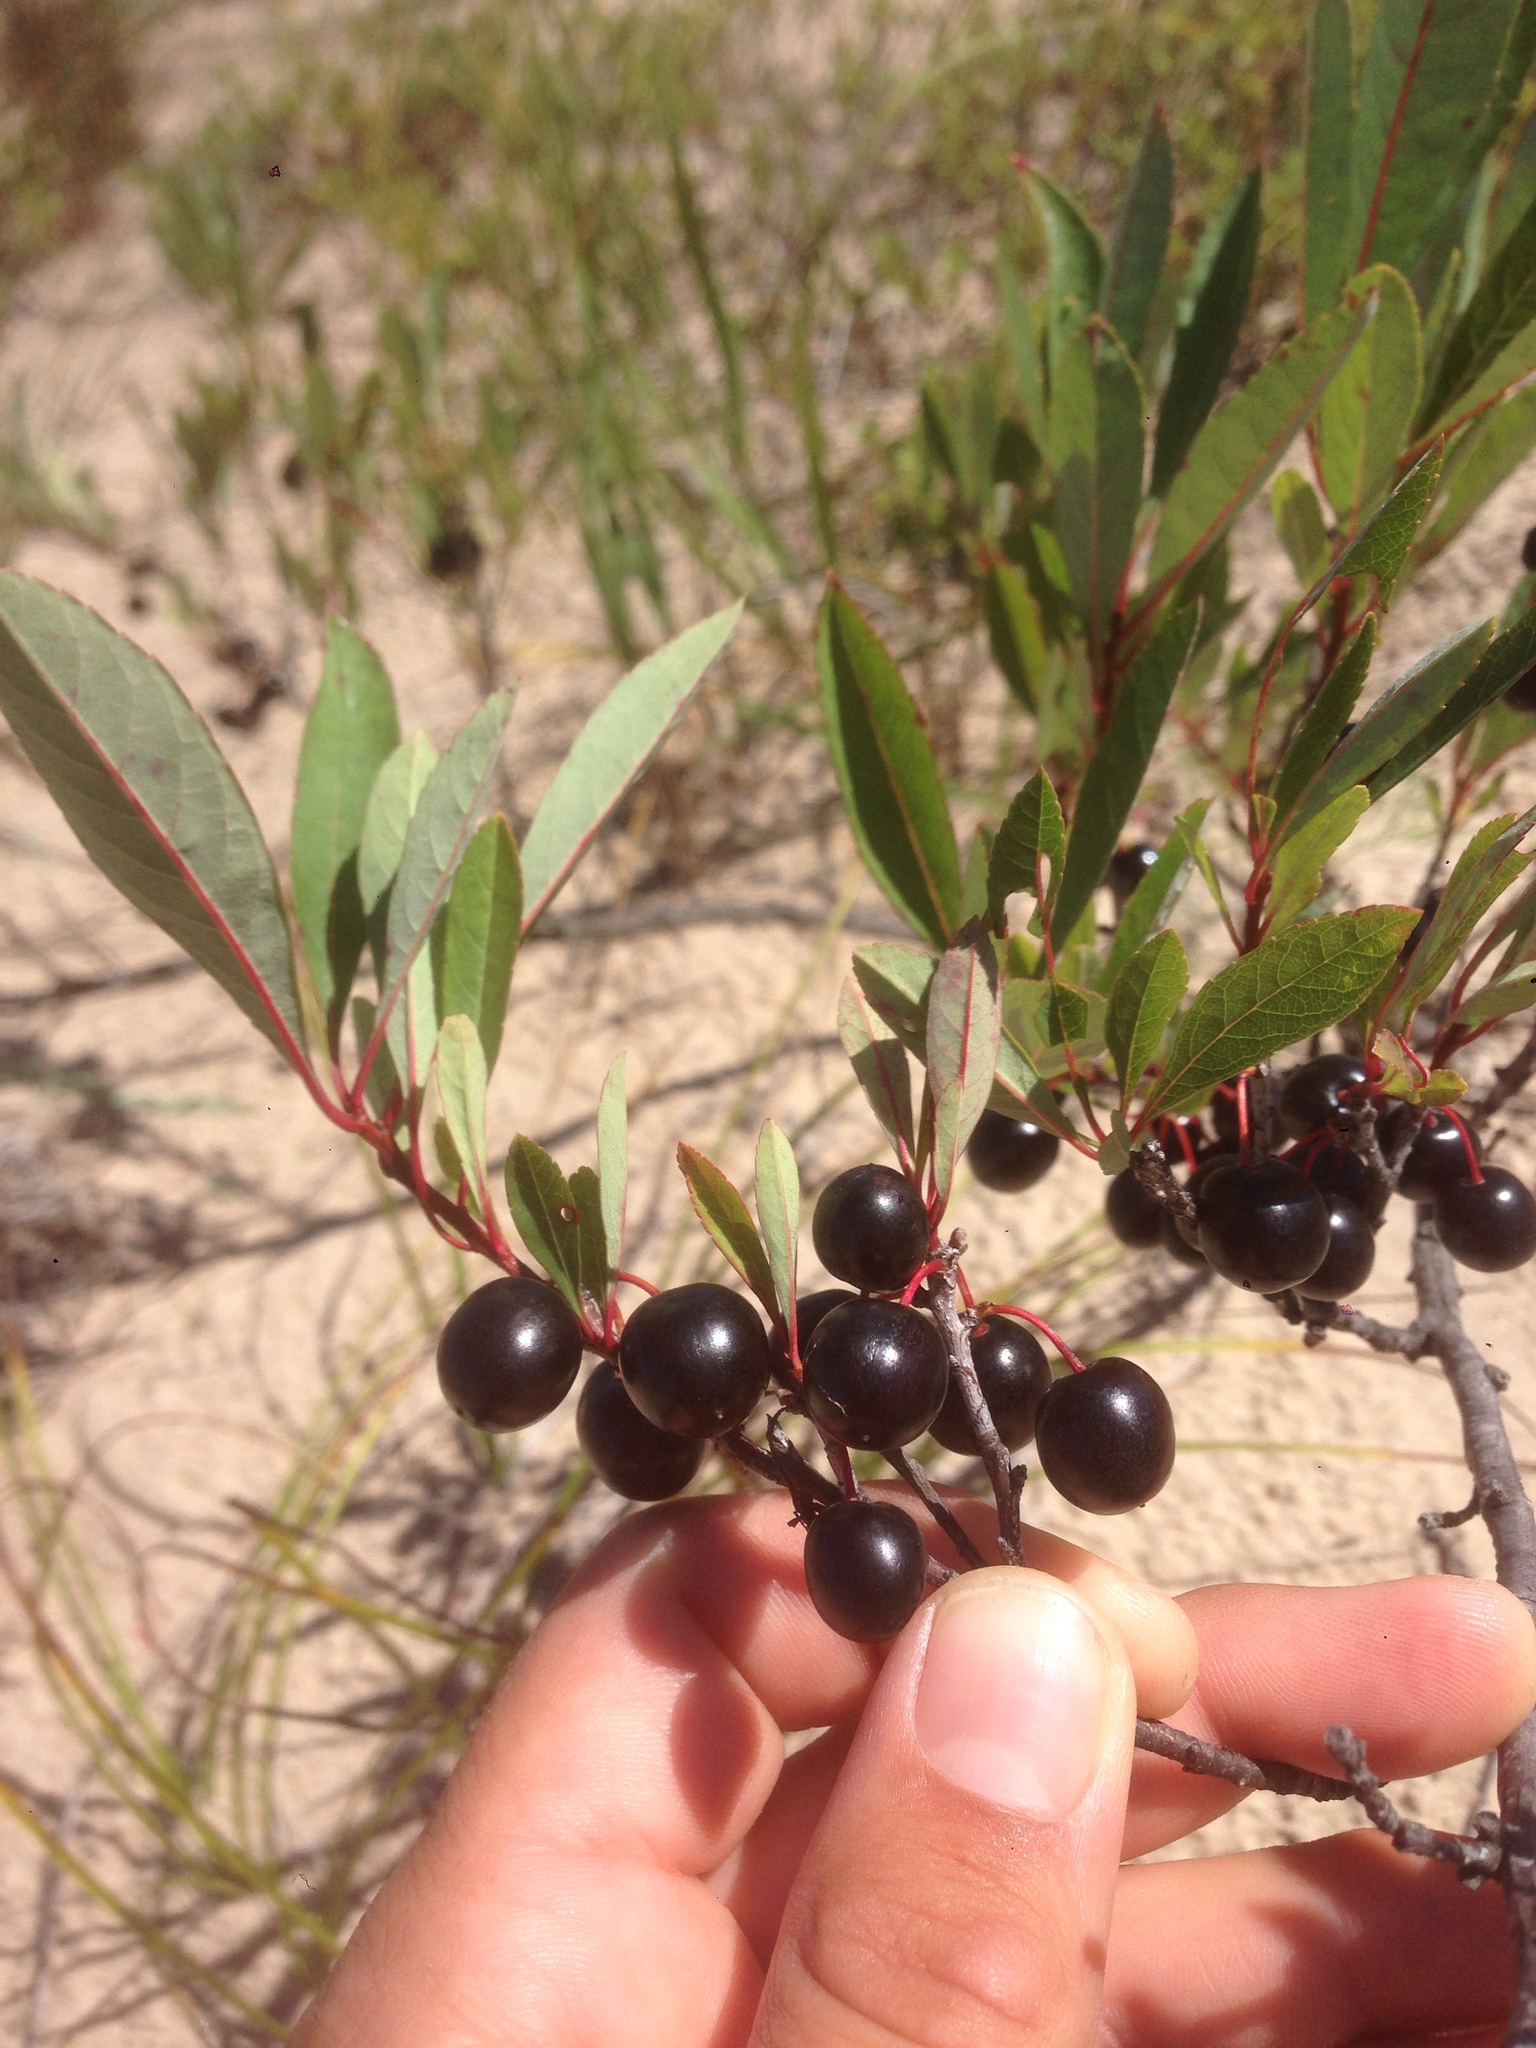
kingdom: Plantae
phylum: Tracheophyta
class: Magnoliopsida
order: Rosales
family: Rosaceae
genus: Prunus
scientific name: Prunus pumila
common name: Dwarf cherry
